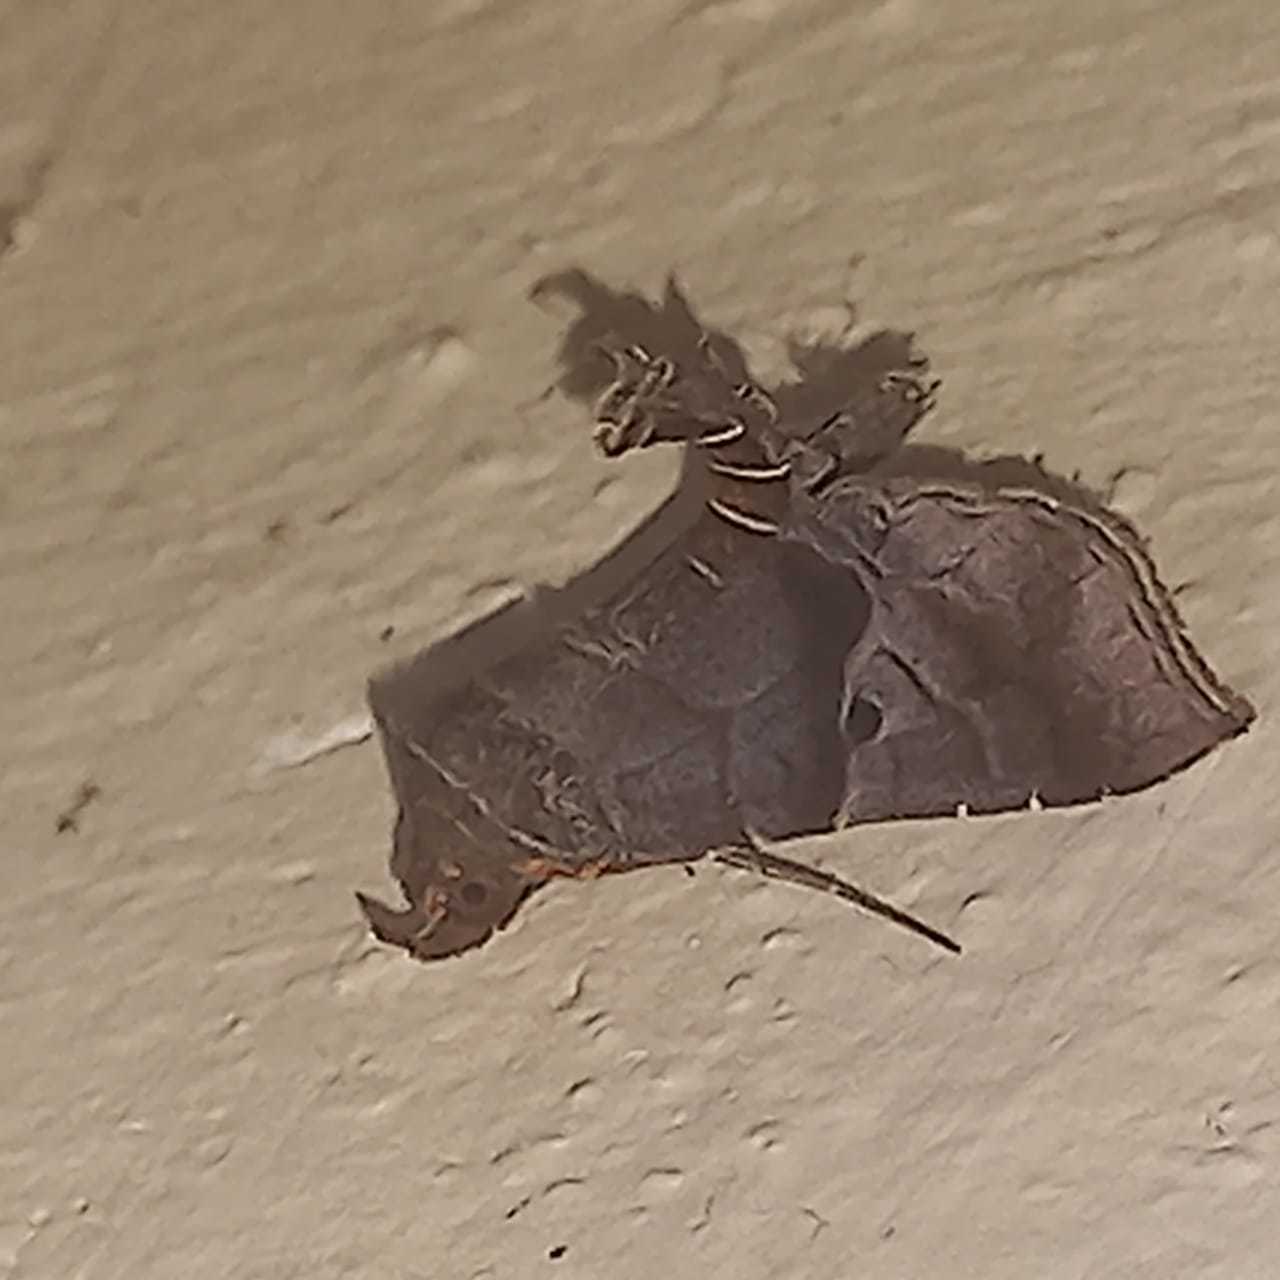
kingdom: Animalia
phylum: Arthropoda
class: Insecta
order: Lepidoptera
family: Erebidae
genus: Radara
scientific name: Radara nealcesalis
